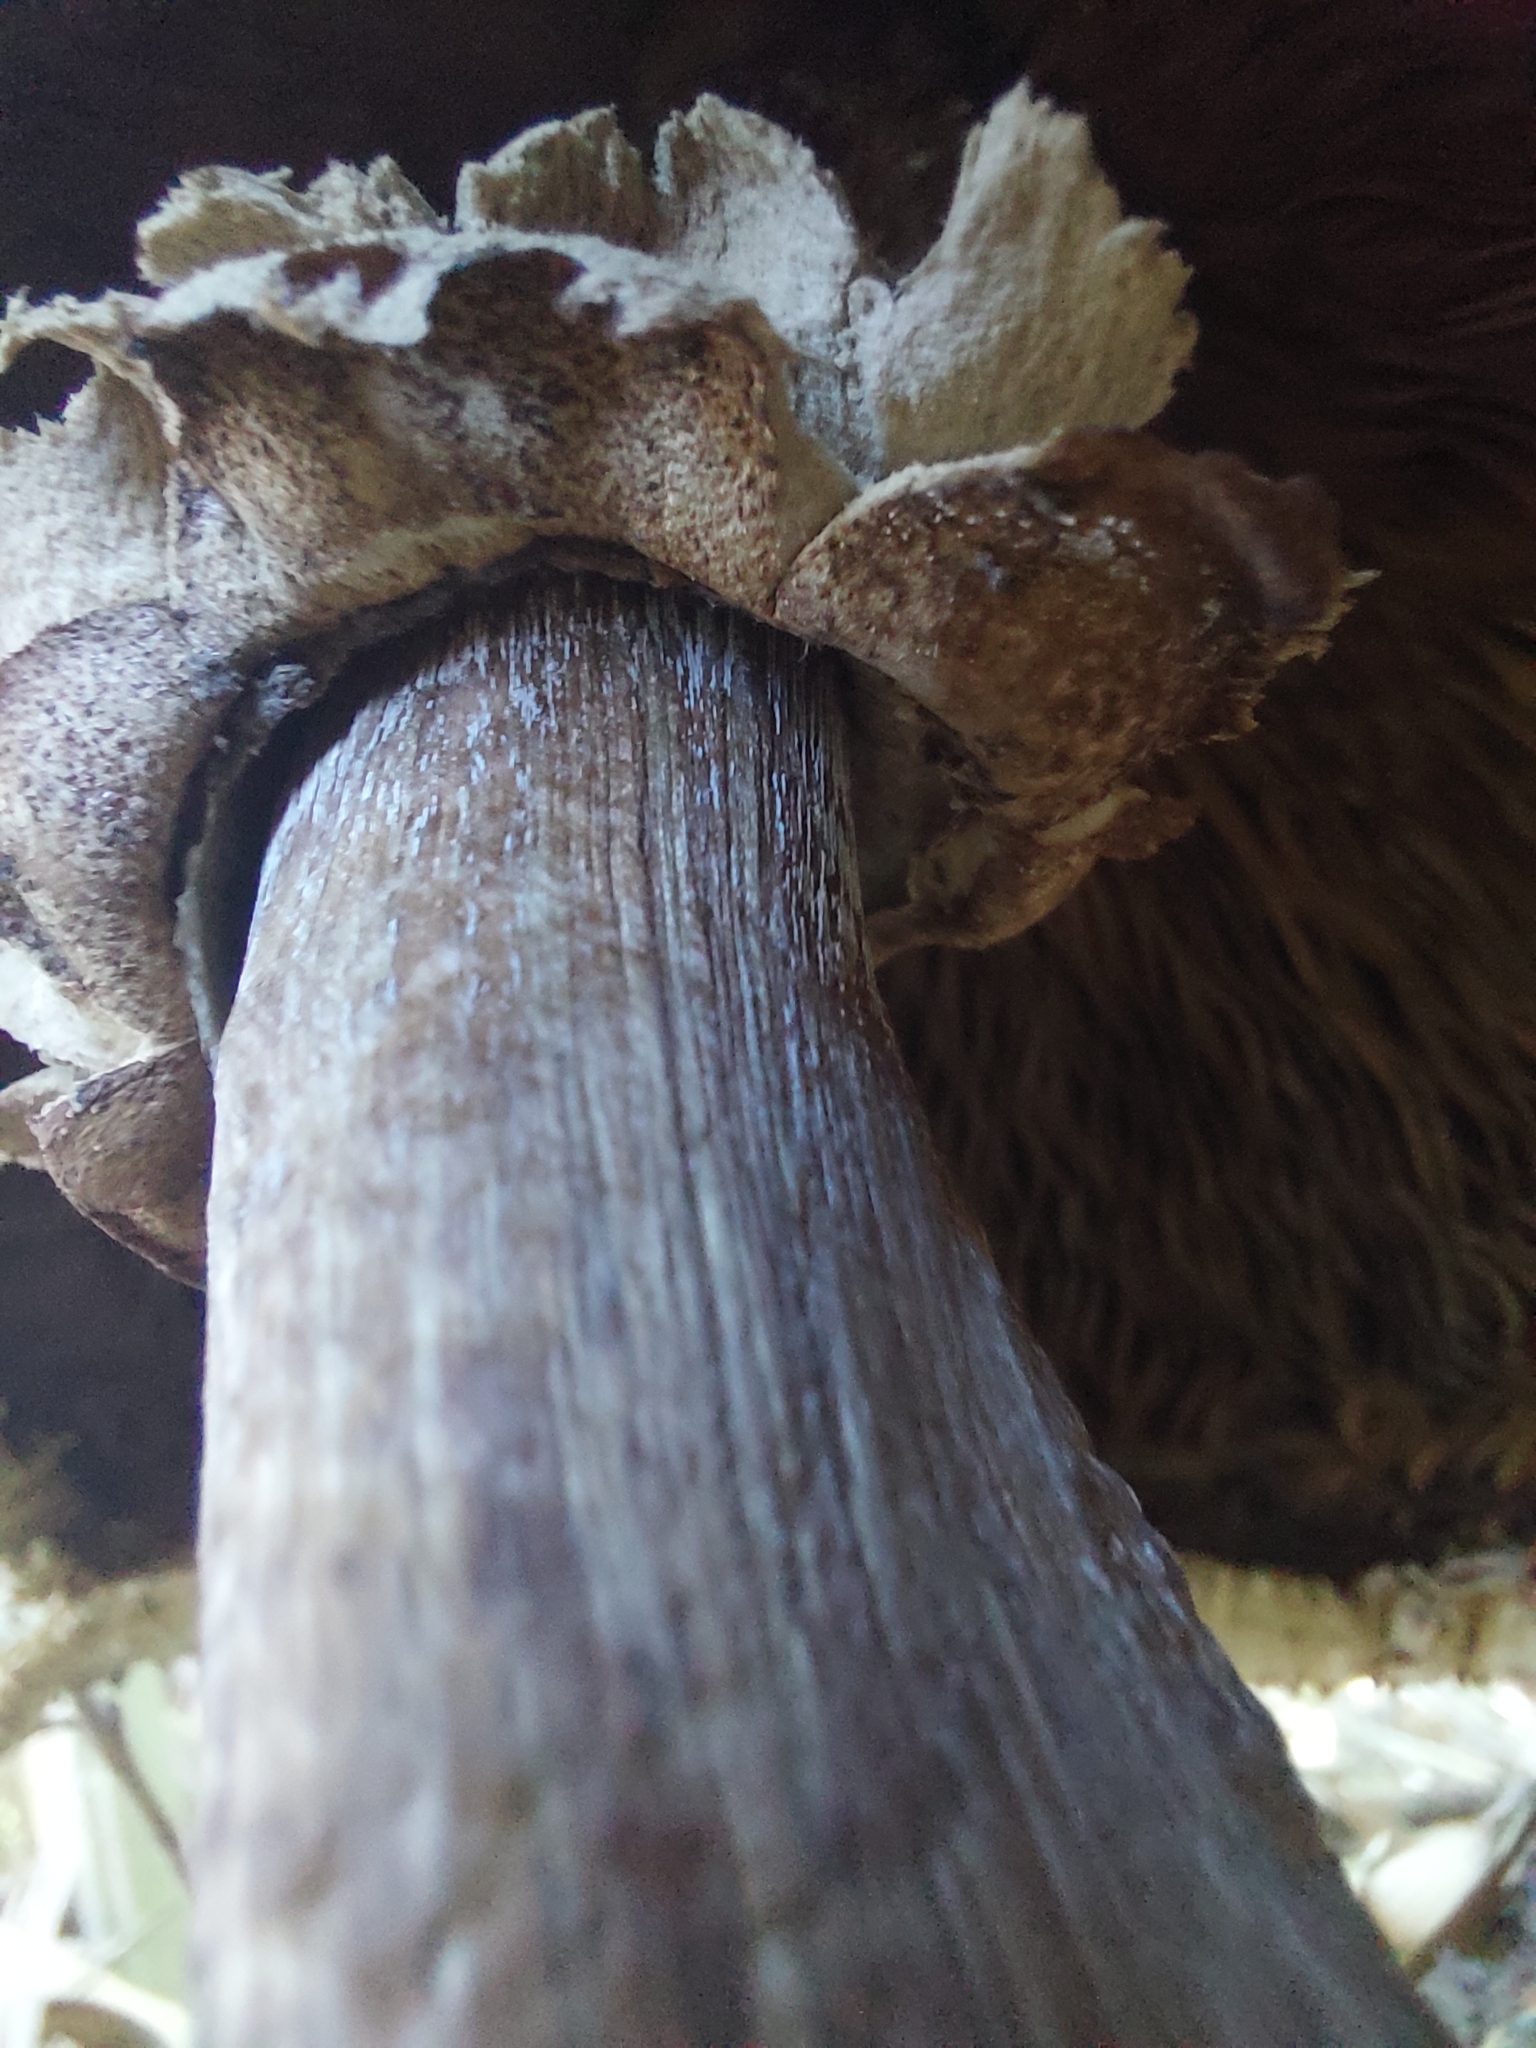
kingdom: Fungi
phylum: Basidiomycota
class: Agaricomycetes
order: Agaricales
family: Agaricaceae
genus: Chlorophyllum
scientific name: Chlorophyllum molybdites
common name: False parasol
